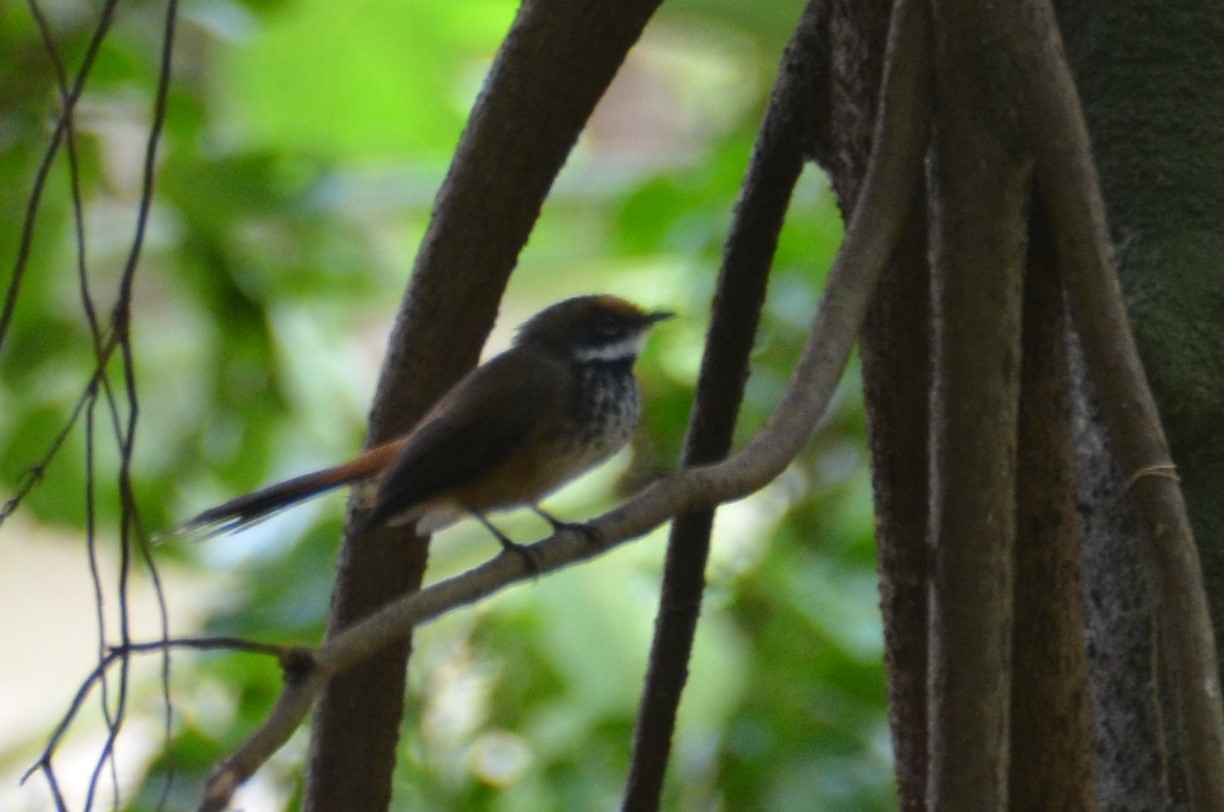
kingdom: Animalia
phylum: Chordata
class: Aves
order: Passeriformes
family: Rhipiduridae
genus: Rhipidura
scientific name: Rhipidura
